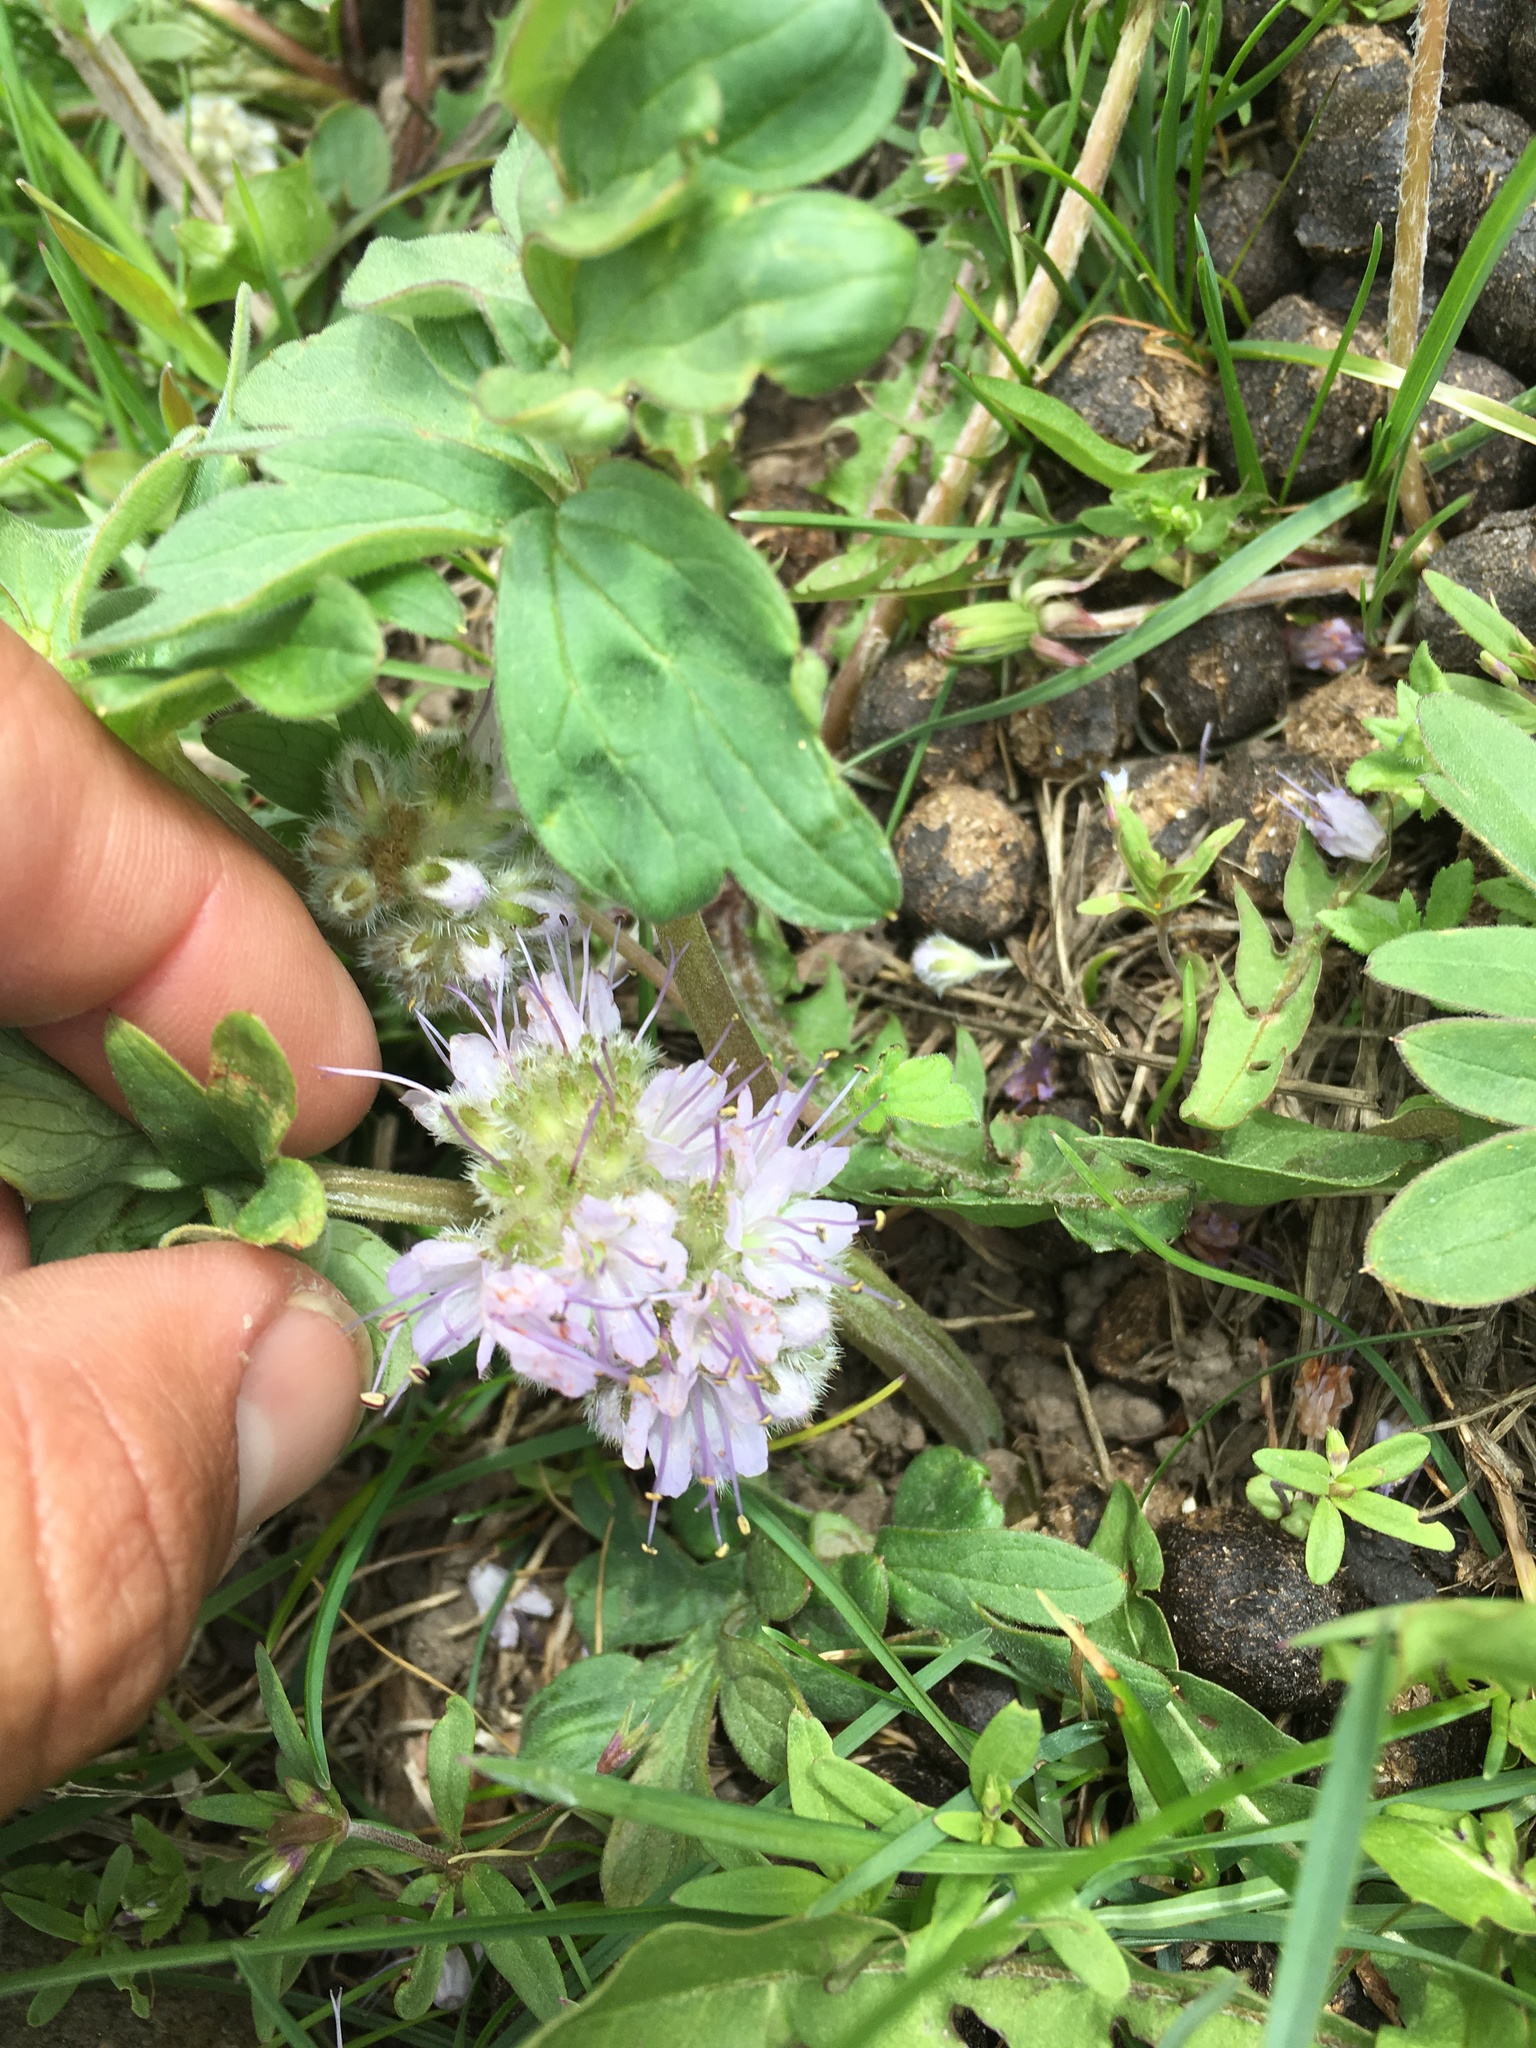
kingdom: Plantae
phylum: Tracheophyta
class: Magnoliopsida
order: Boraginales
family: Hydrophyllaceae
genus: Hydrophyllum
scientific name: Hydrophyllum capitatum
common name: Woollen-breeches
